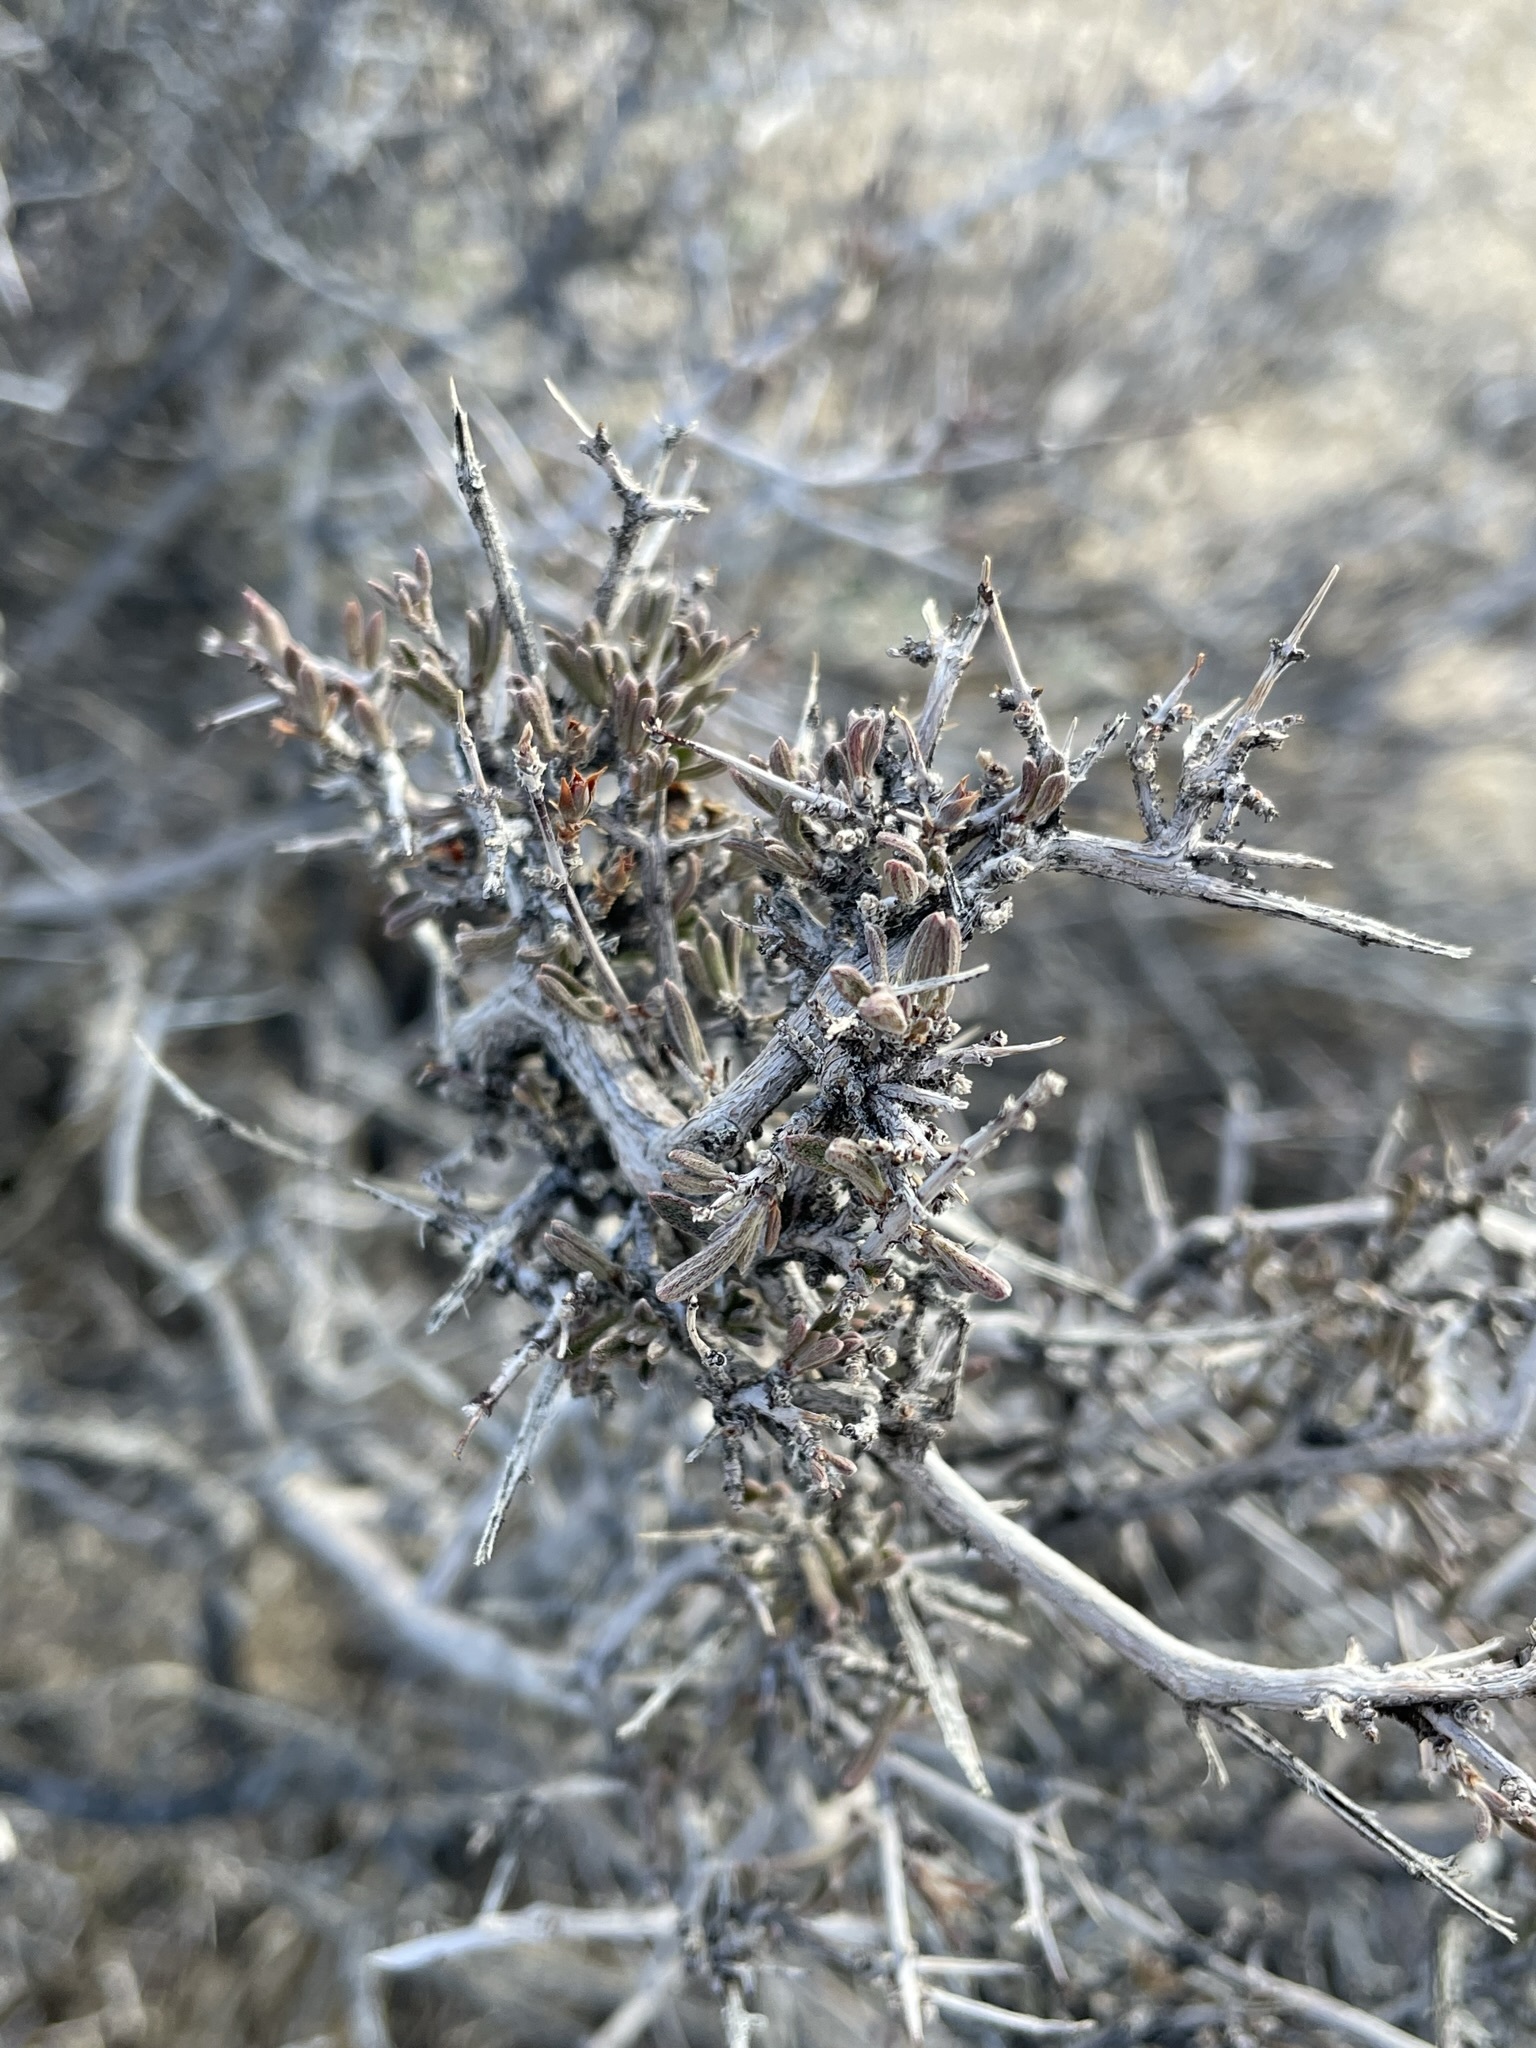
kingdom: Plantae
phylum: Tracheophyta
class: Magnoliopsida
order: Rosales
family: Rosaceae
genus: Coleogyne
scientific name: Coleogyne ramosissima
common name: Blackbrush
